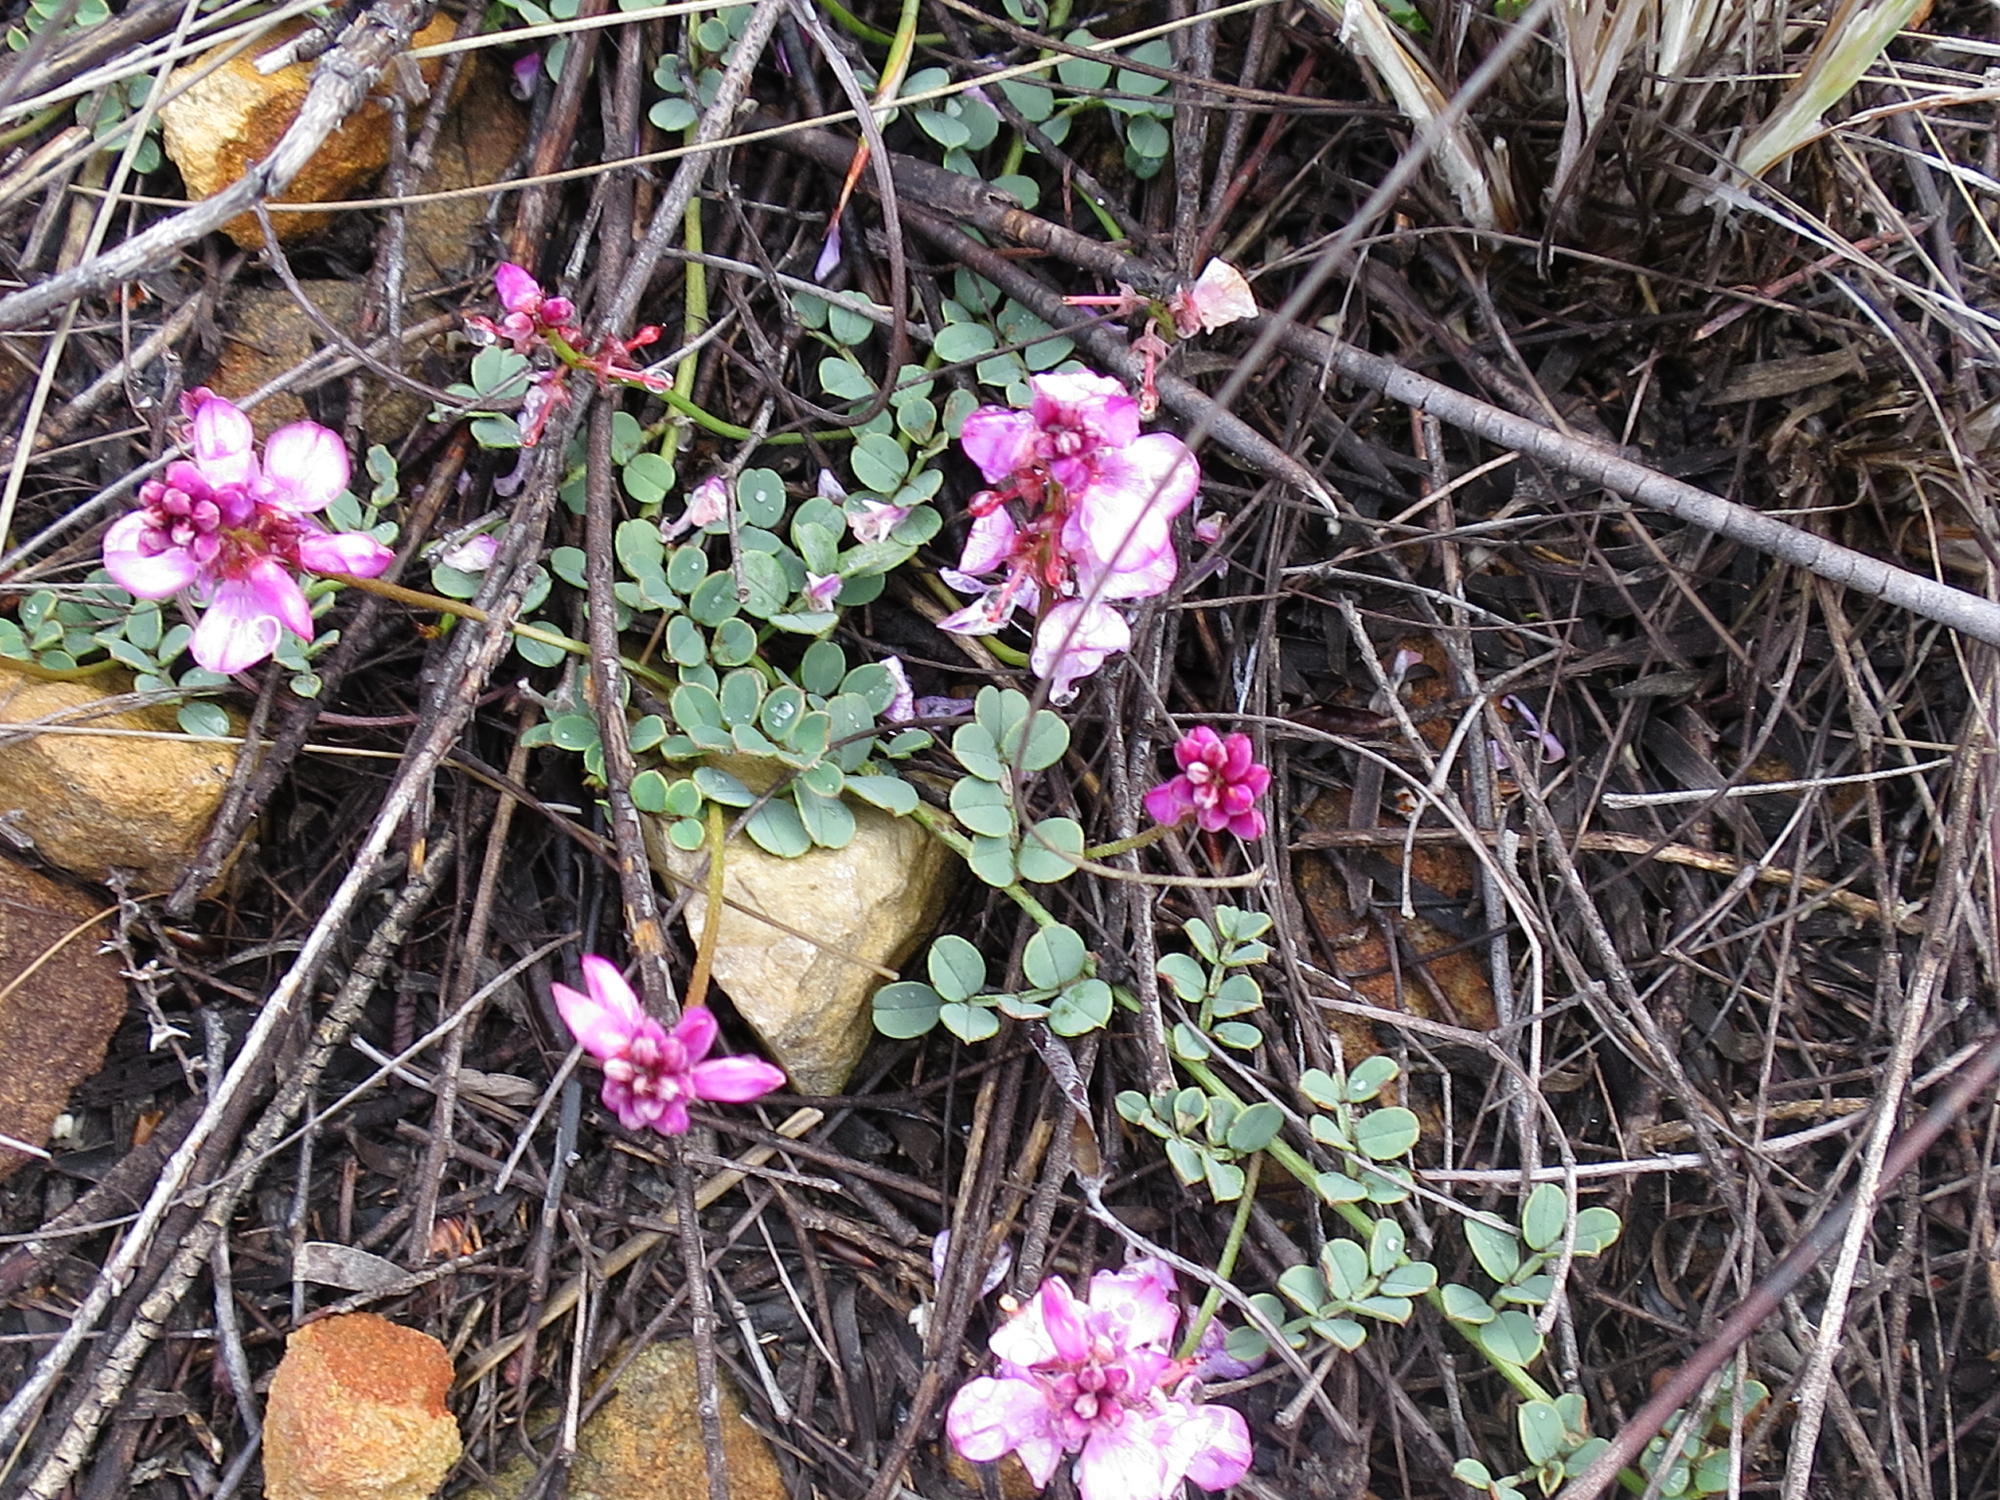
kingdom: Plantae
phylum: Tracheophyta
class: Magnoliopsida
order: Fabales
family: Fabaceae
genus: Indigofera
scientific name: Indigofera
